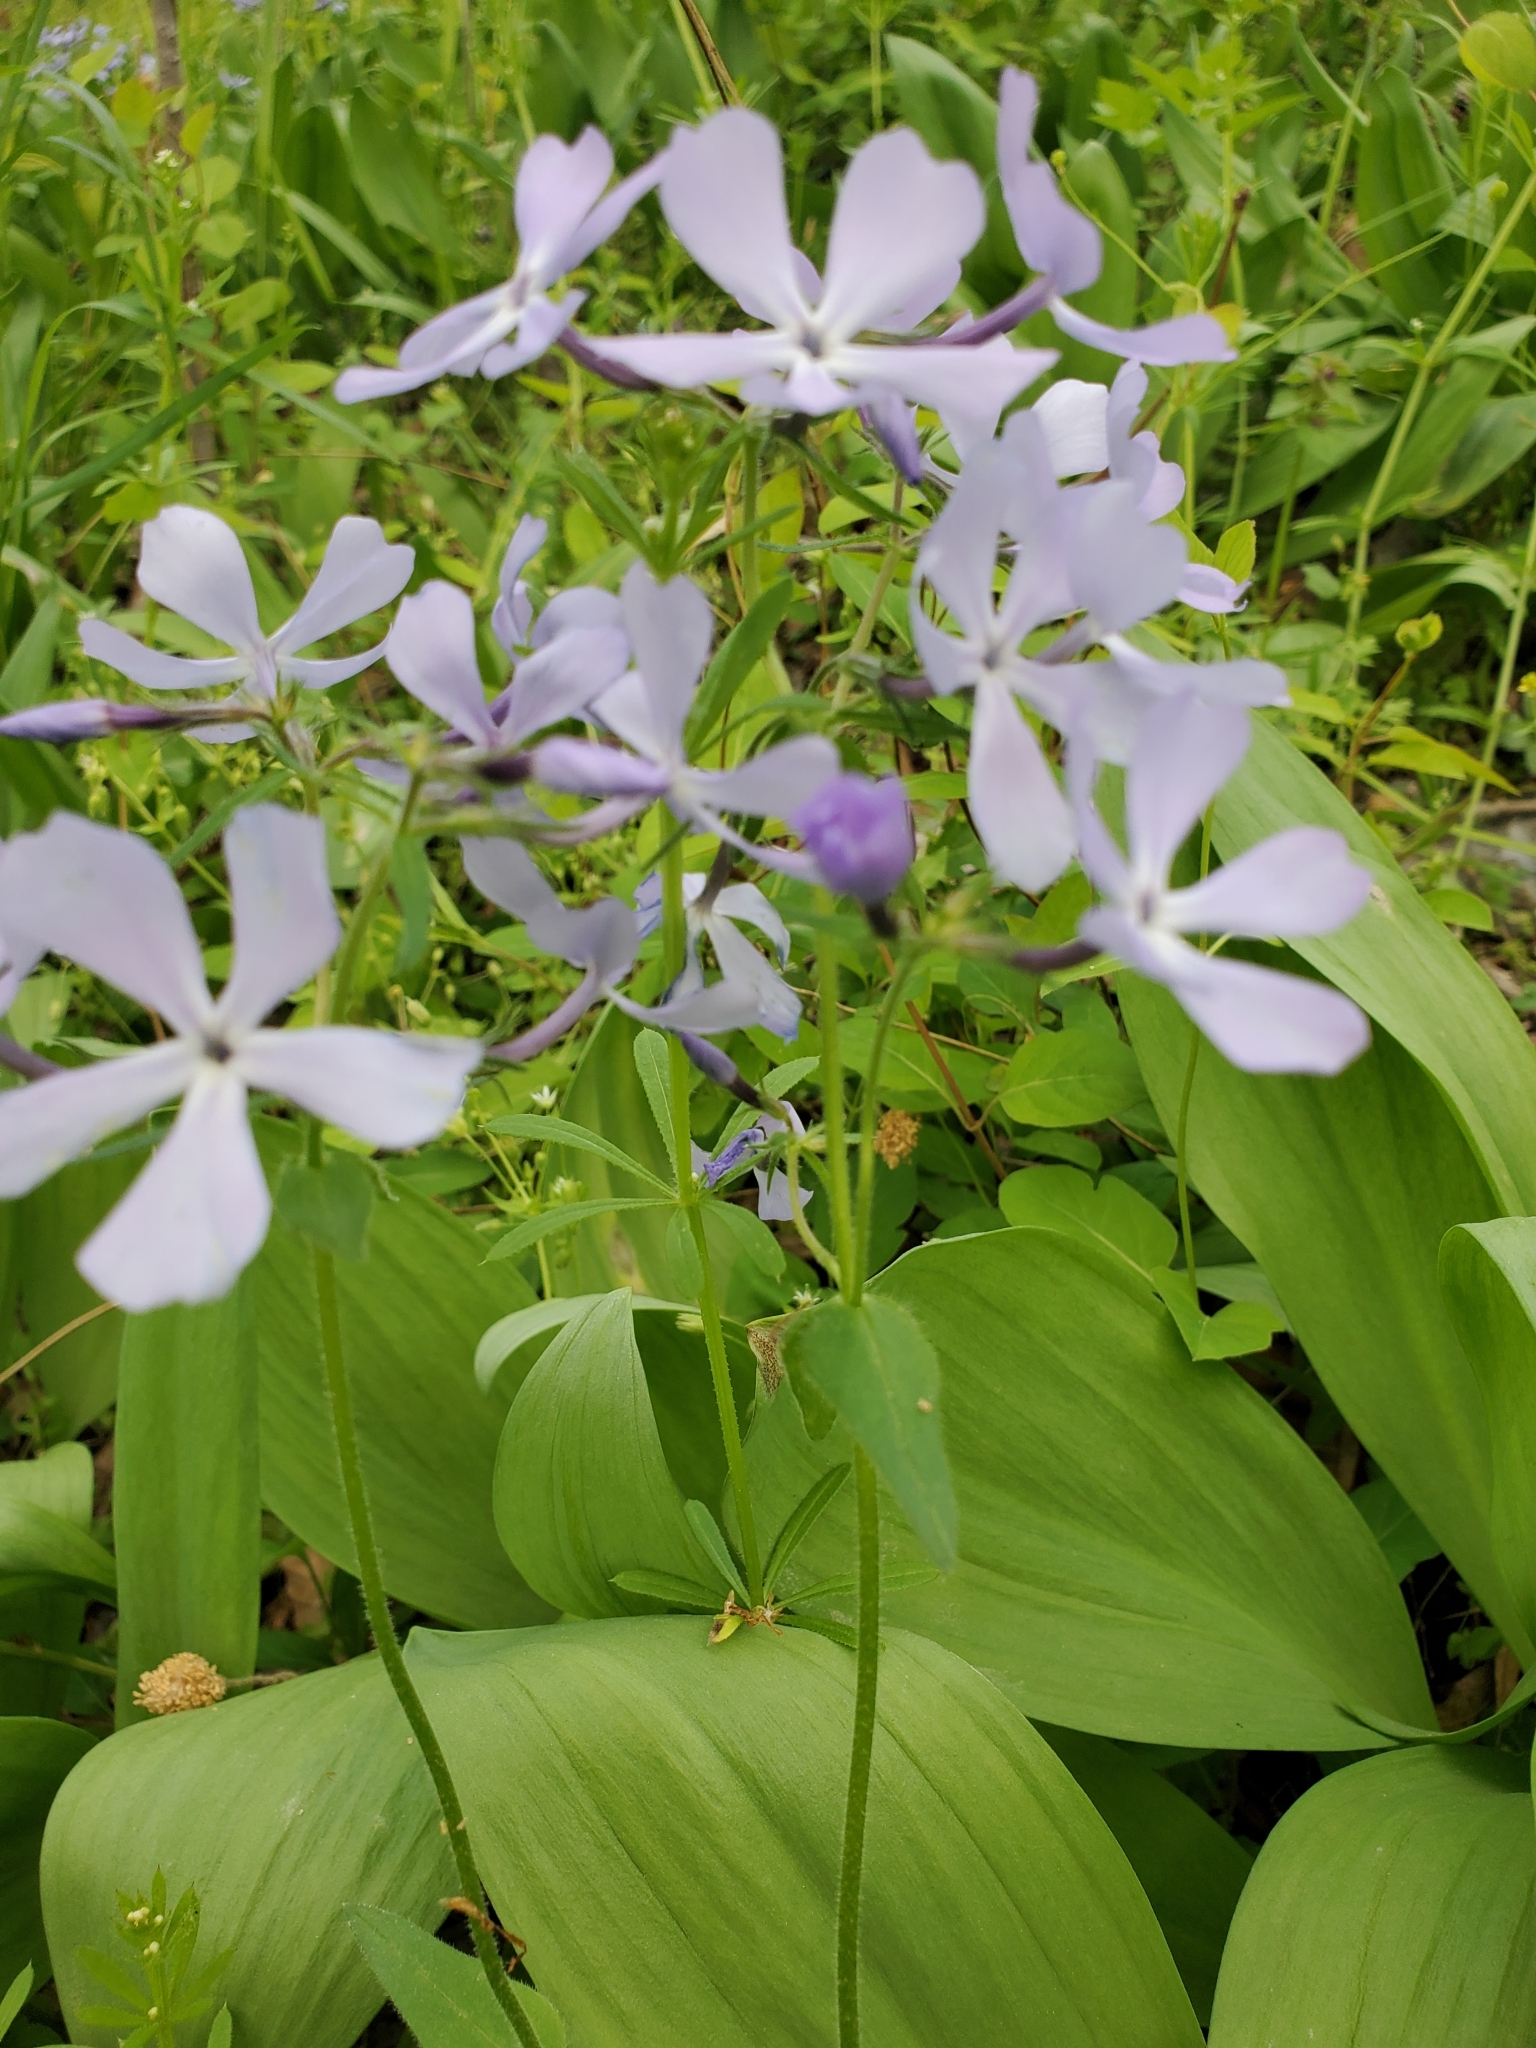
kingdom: Plantae
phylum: Tracheophyta
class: Magnoliopsida
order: Ericales
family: Polemoniaceae
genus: Phlox
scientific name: Phlox divaricata
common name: Blue phlox
